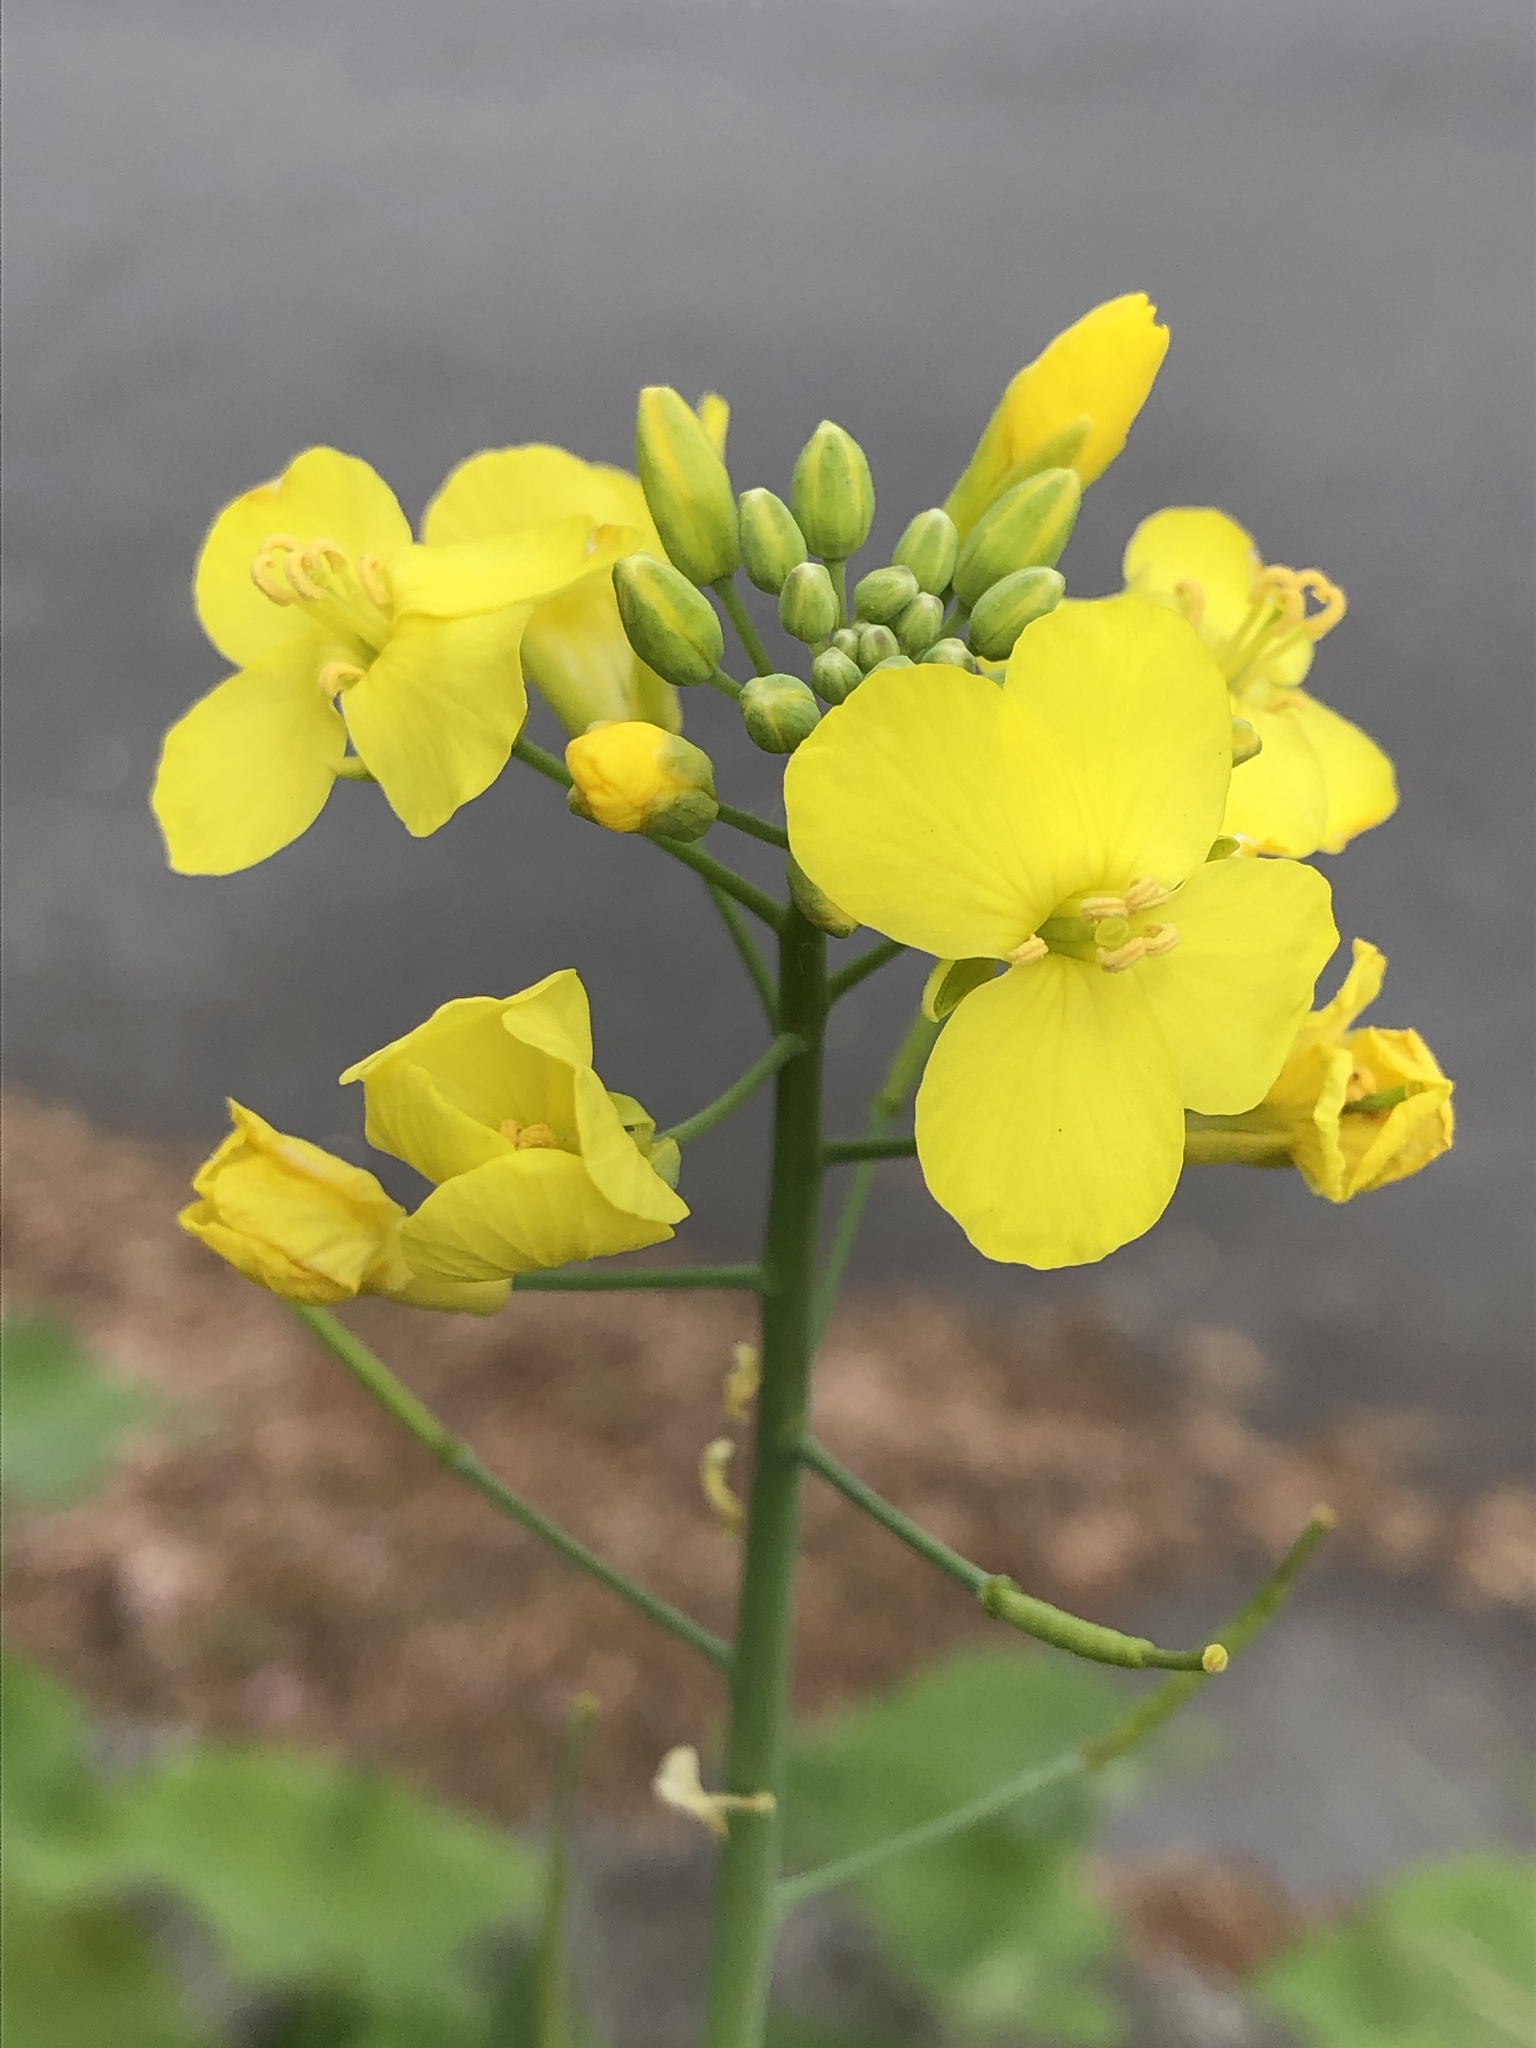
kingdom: Plantae
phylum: Tracheophyta
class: Magnoliopsida
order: Brassicales
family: Brassicaceae
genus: Brassica
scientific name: Brassica napus
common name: Rape
